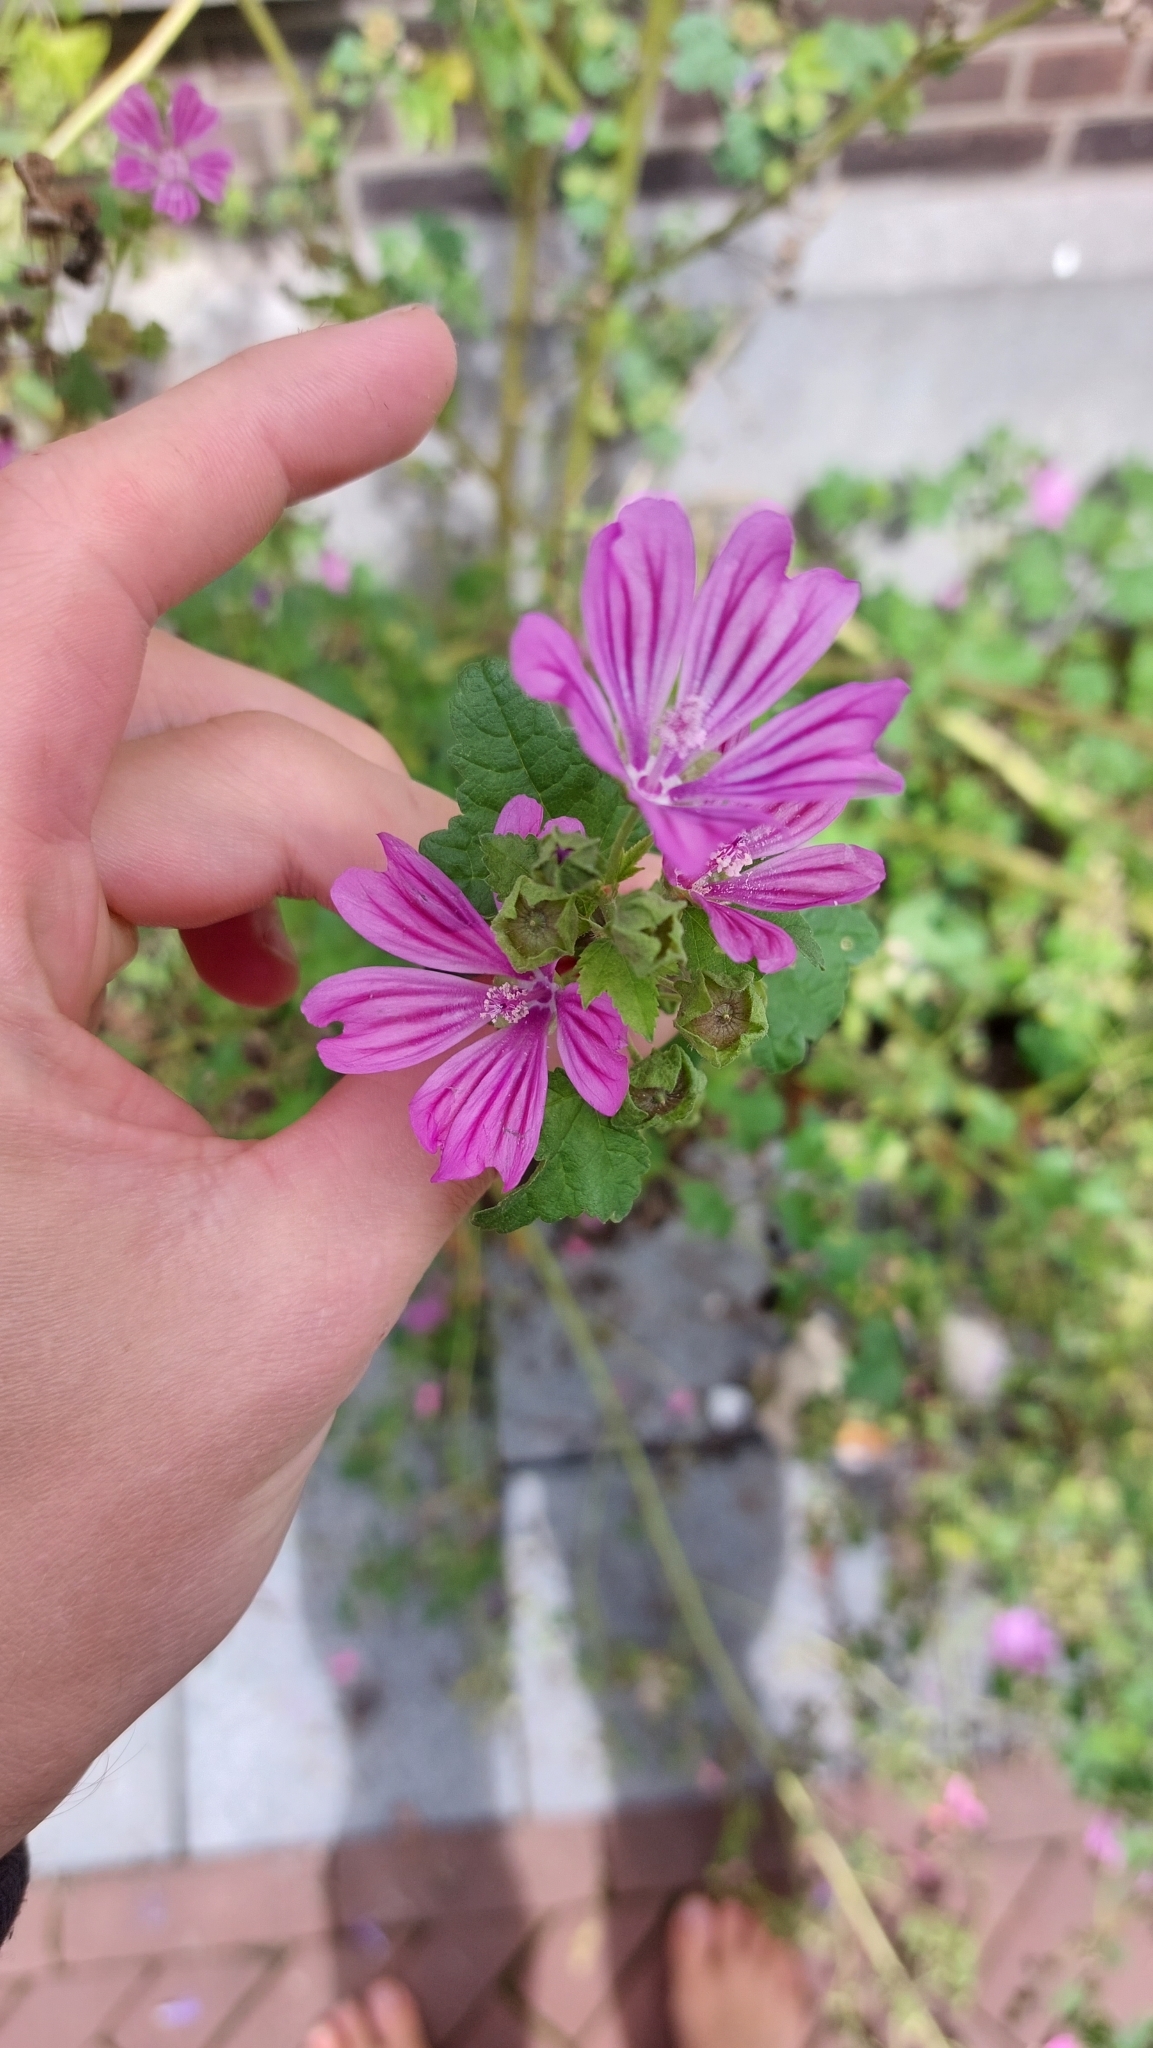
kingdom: Plantae
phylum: Tracheophyta
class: Magnoliopsida
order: Malvales
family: Malvaceae
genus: Malva
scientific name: Malva sylvestris
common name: Common mallow
